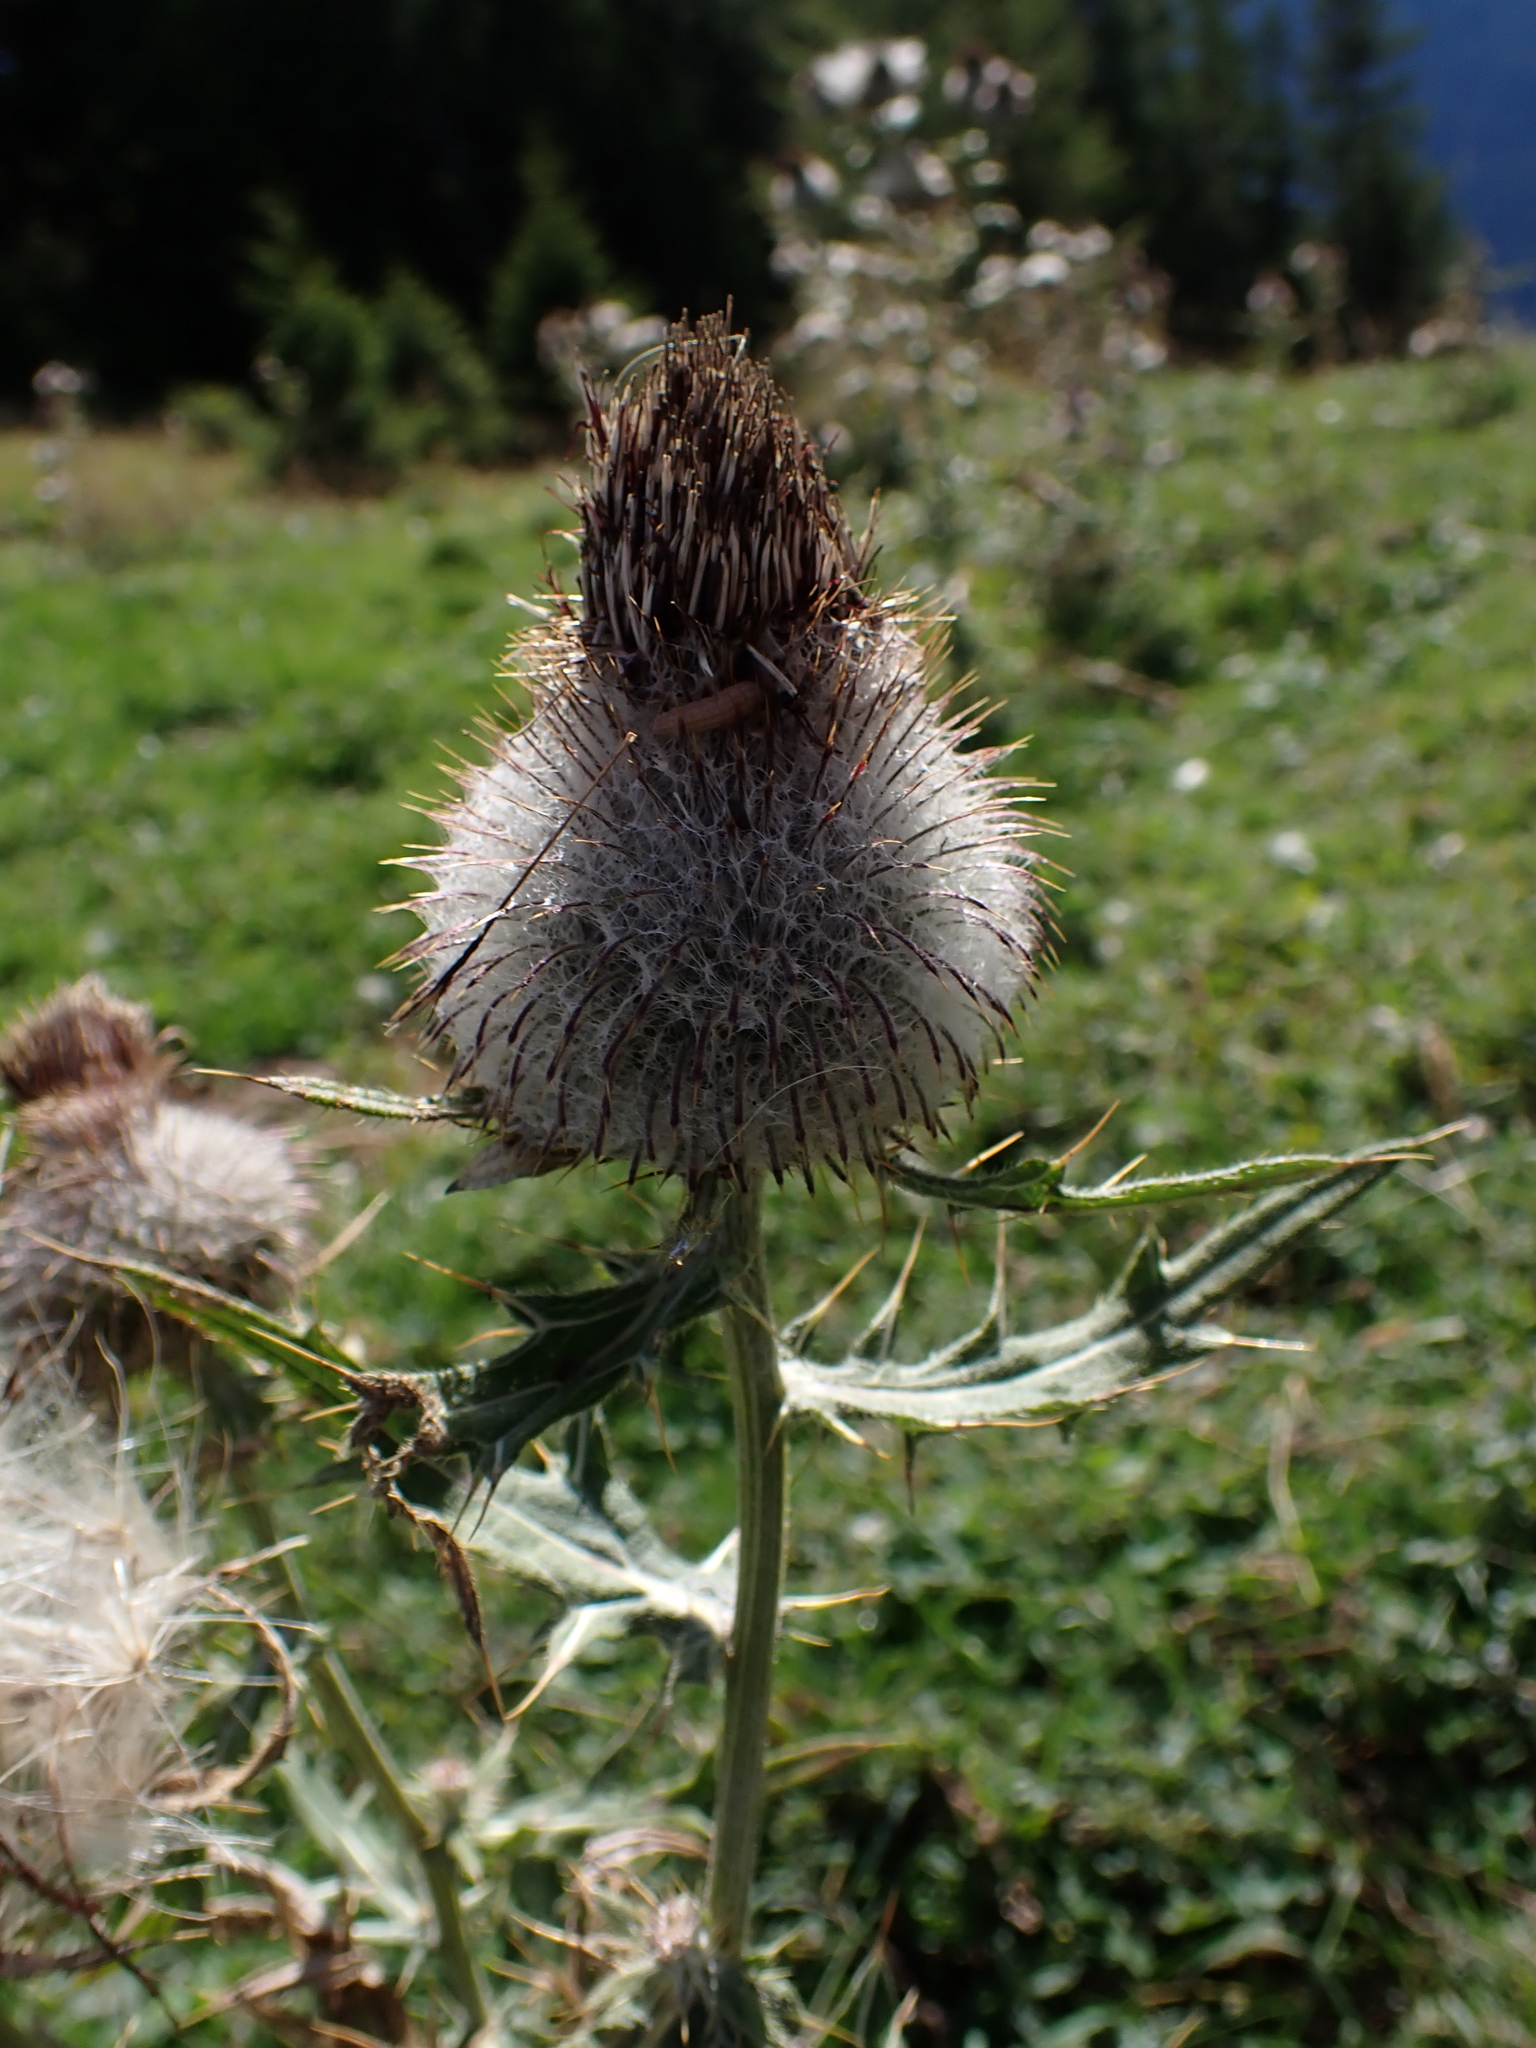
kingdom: Plantae
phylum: Tracheophyta
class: Magnoliopsida
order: Asterales
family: Asteraceae
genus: Lophiolepis
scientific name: Lophiolepis eriophora
